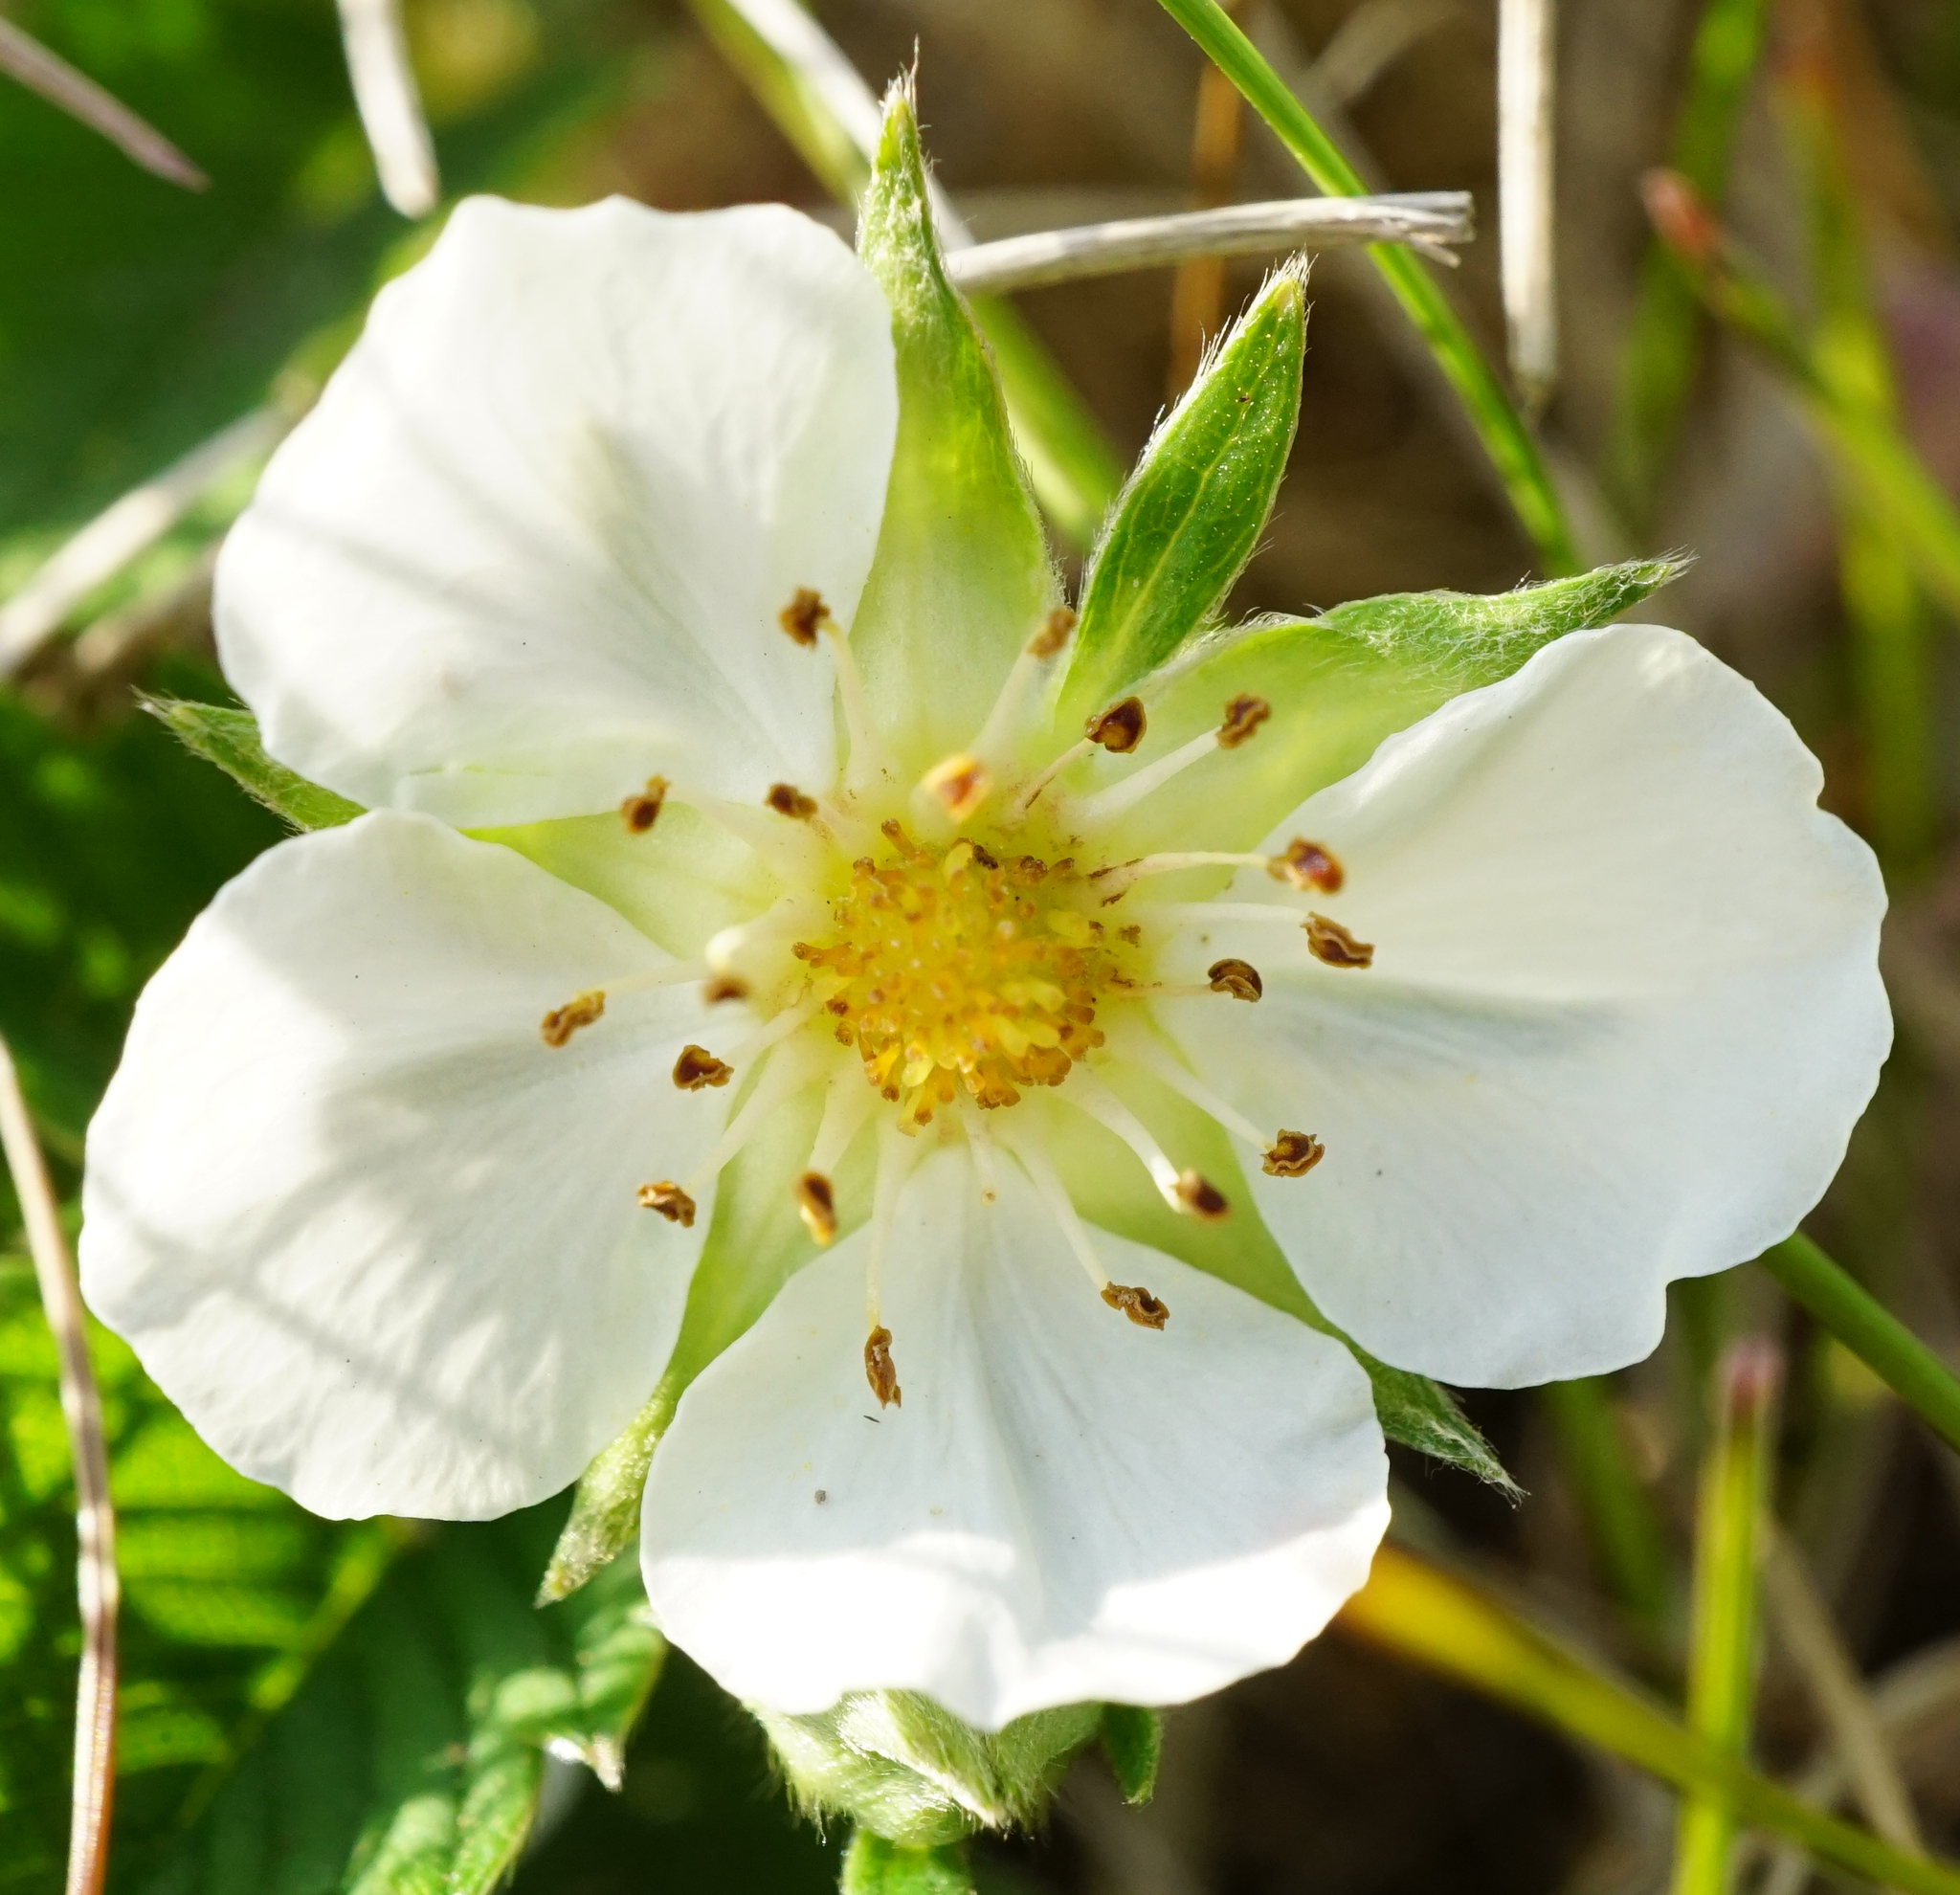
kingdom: Plantae
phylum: Tracheophyta
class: Magnoliopsida
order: Rosales
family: Rosaceae
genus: Fragaria
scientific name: Fragaria viridis
